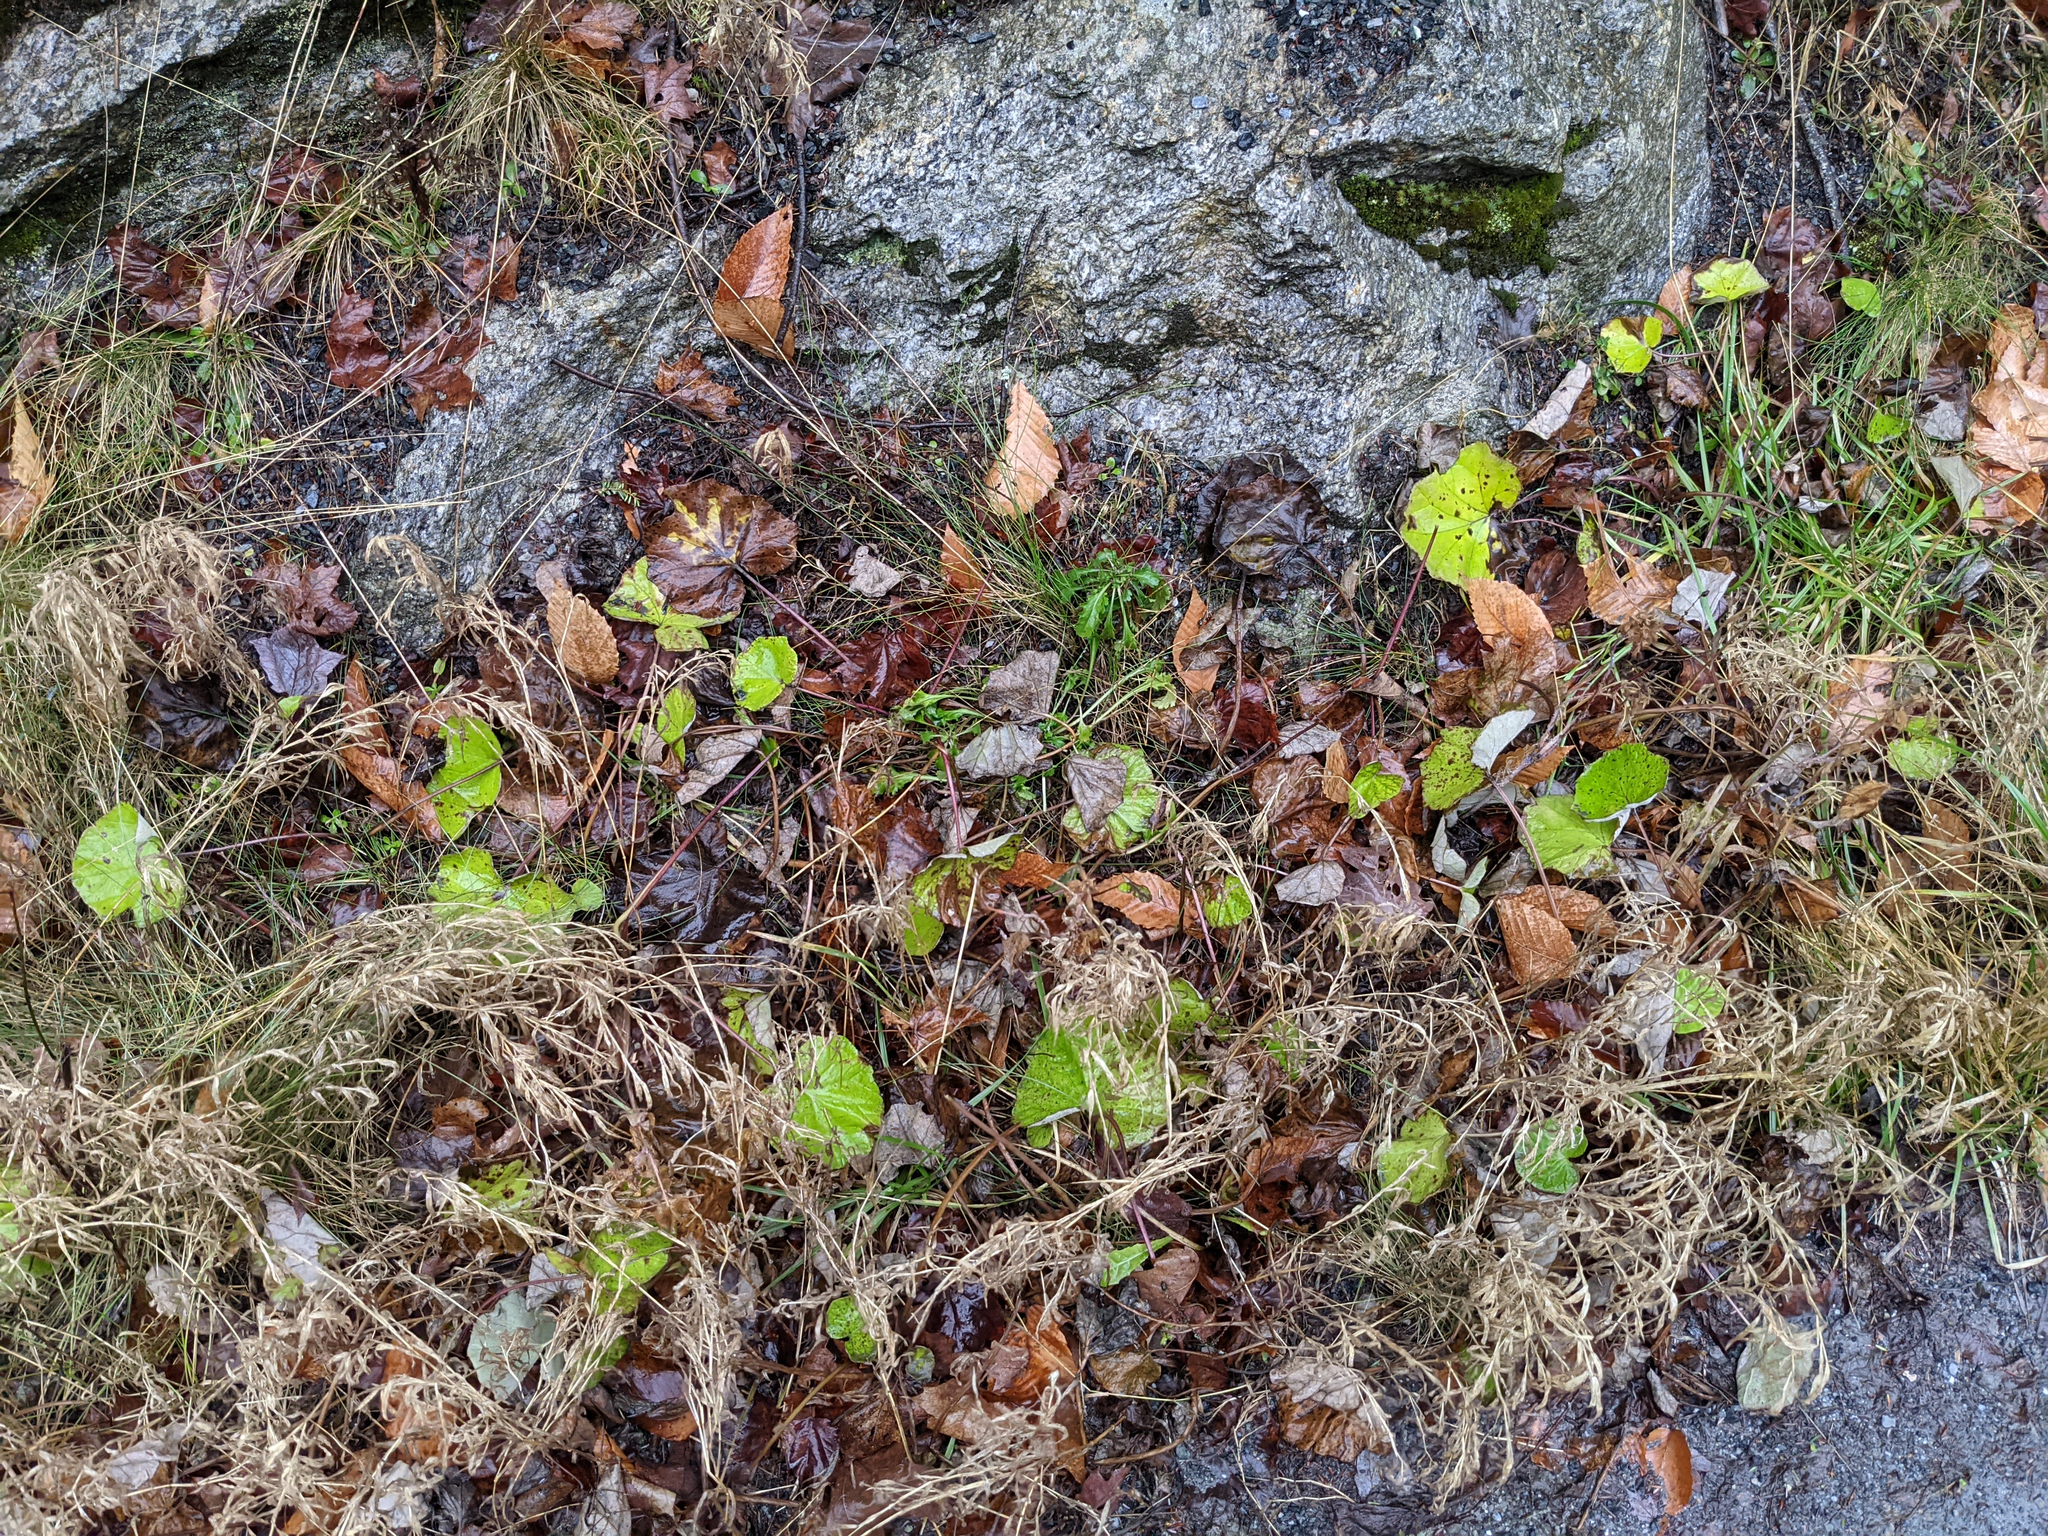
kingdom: Plantae
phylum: Tracheophyta
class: Magnoliopsida
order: Asterales
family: Asteraceae
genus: Tussilago
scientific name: Tussilago farfara
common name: Coltsfoot
